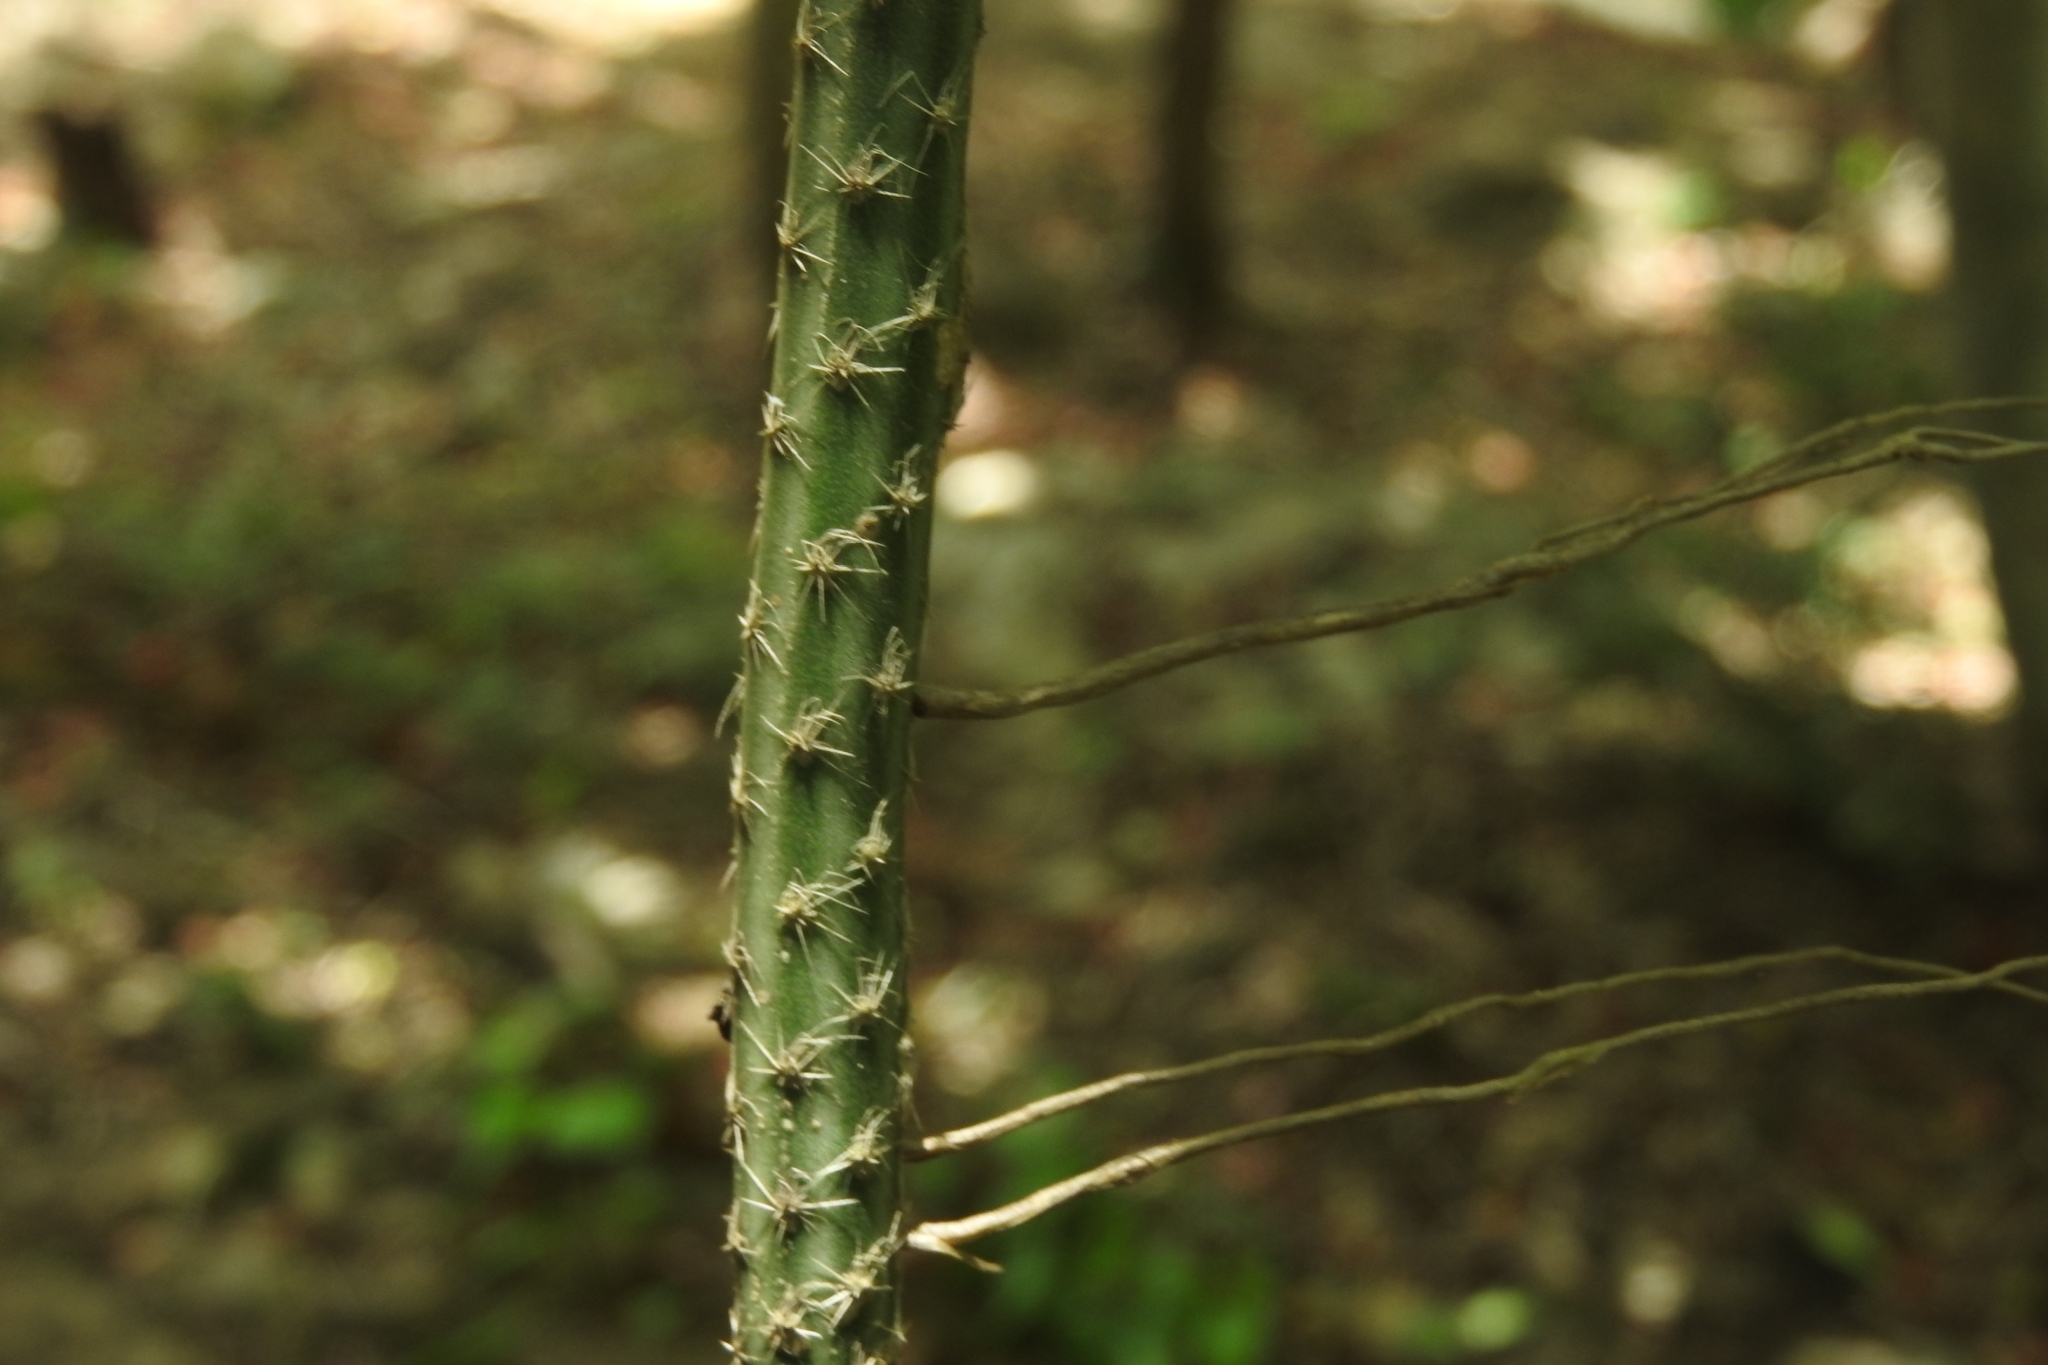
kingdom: Plantae
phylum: Tracheophyta
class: Magnoliopsida
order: Caryophyllales
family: Cactaceae
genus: Selenicereus
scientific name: Selenicereus grandiflorus
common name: Queen of the night
